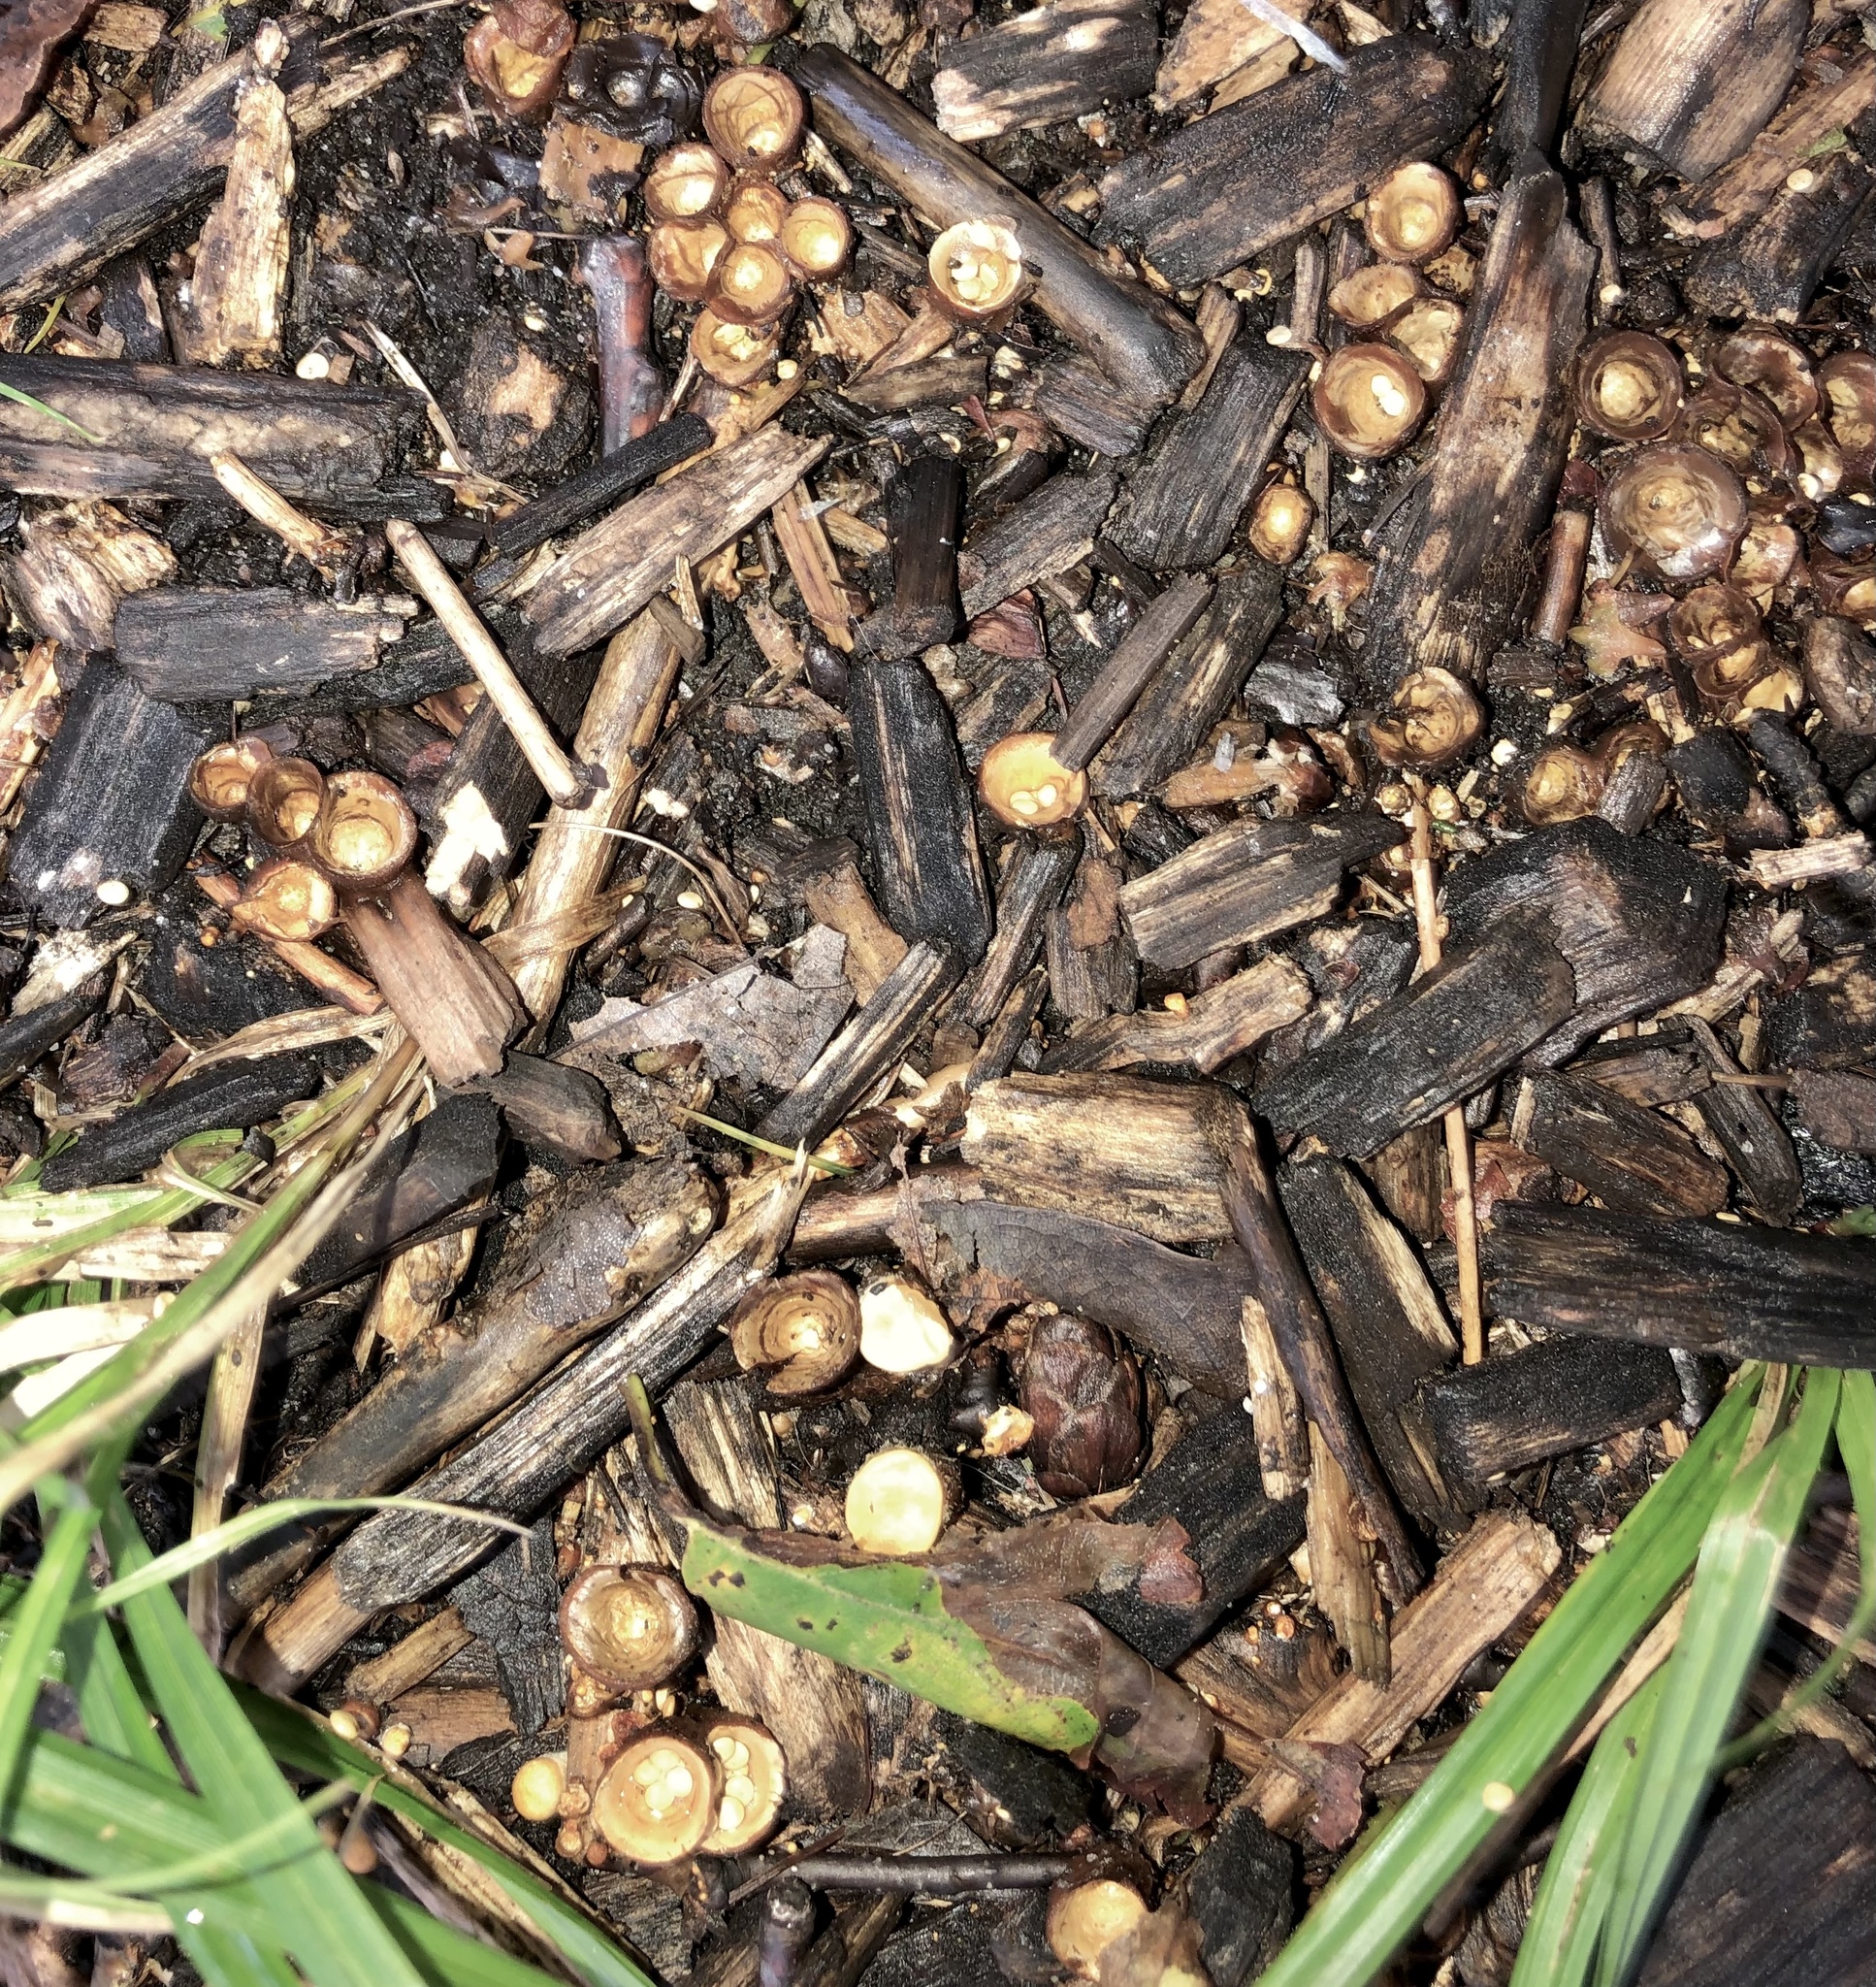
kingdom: Fungi
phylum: Basidiomycota
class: Agaricomycetes
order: Agaricales
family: Nidulariaceae
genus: Crucibulum
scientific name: Crucibulum laeve
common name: Common bird's nest
